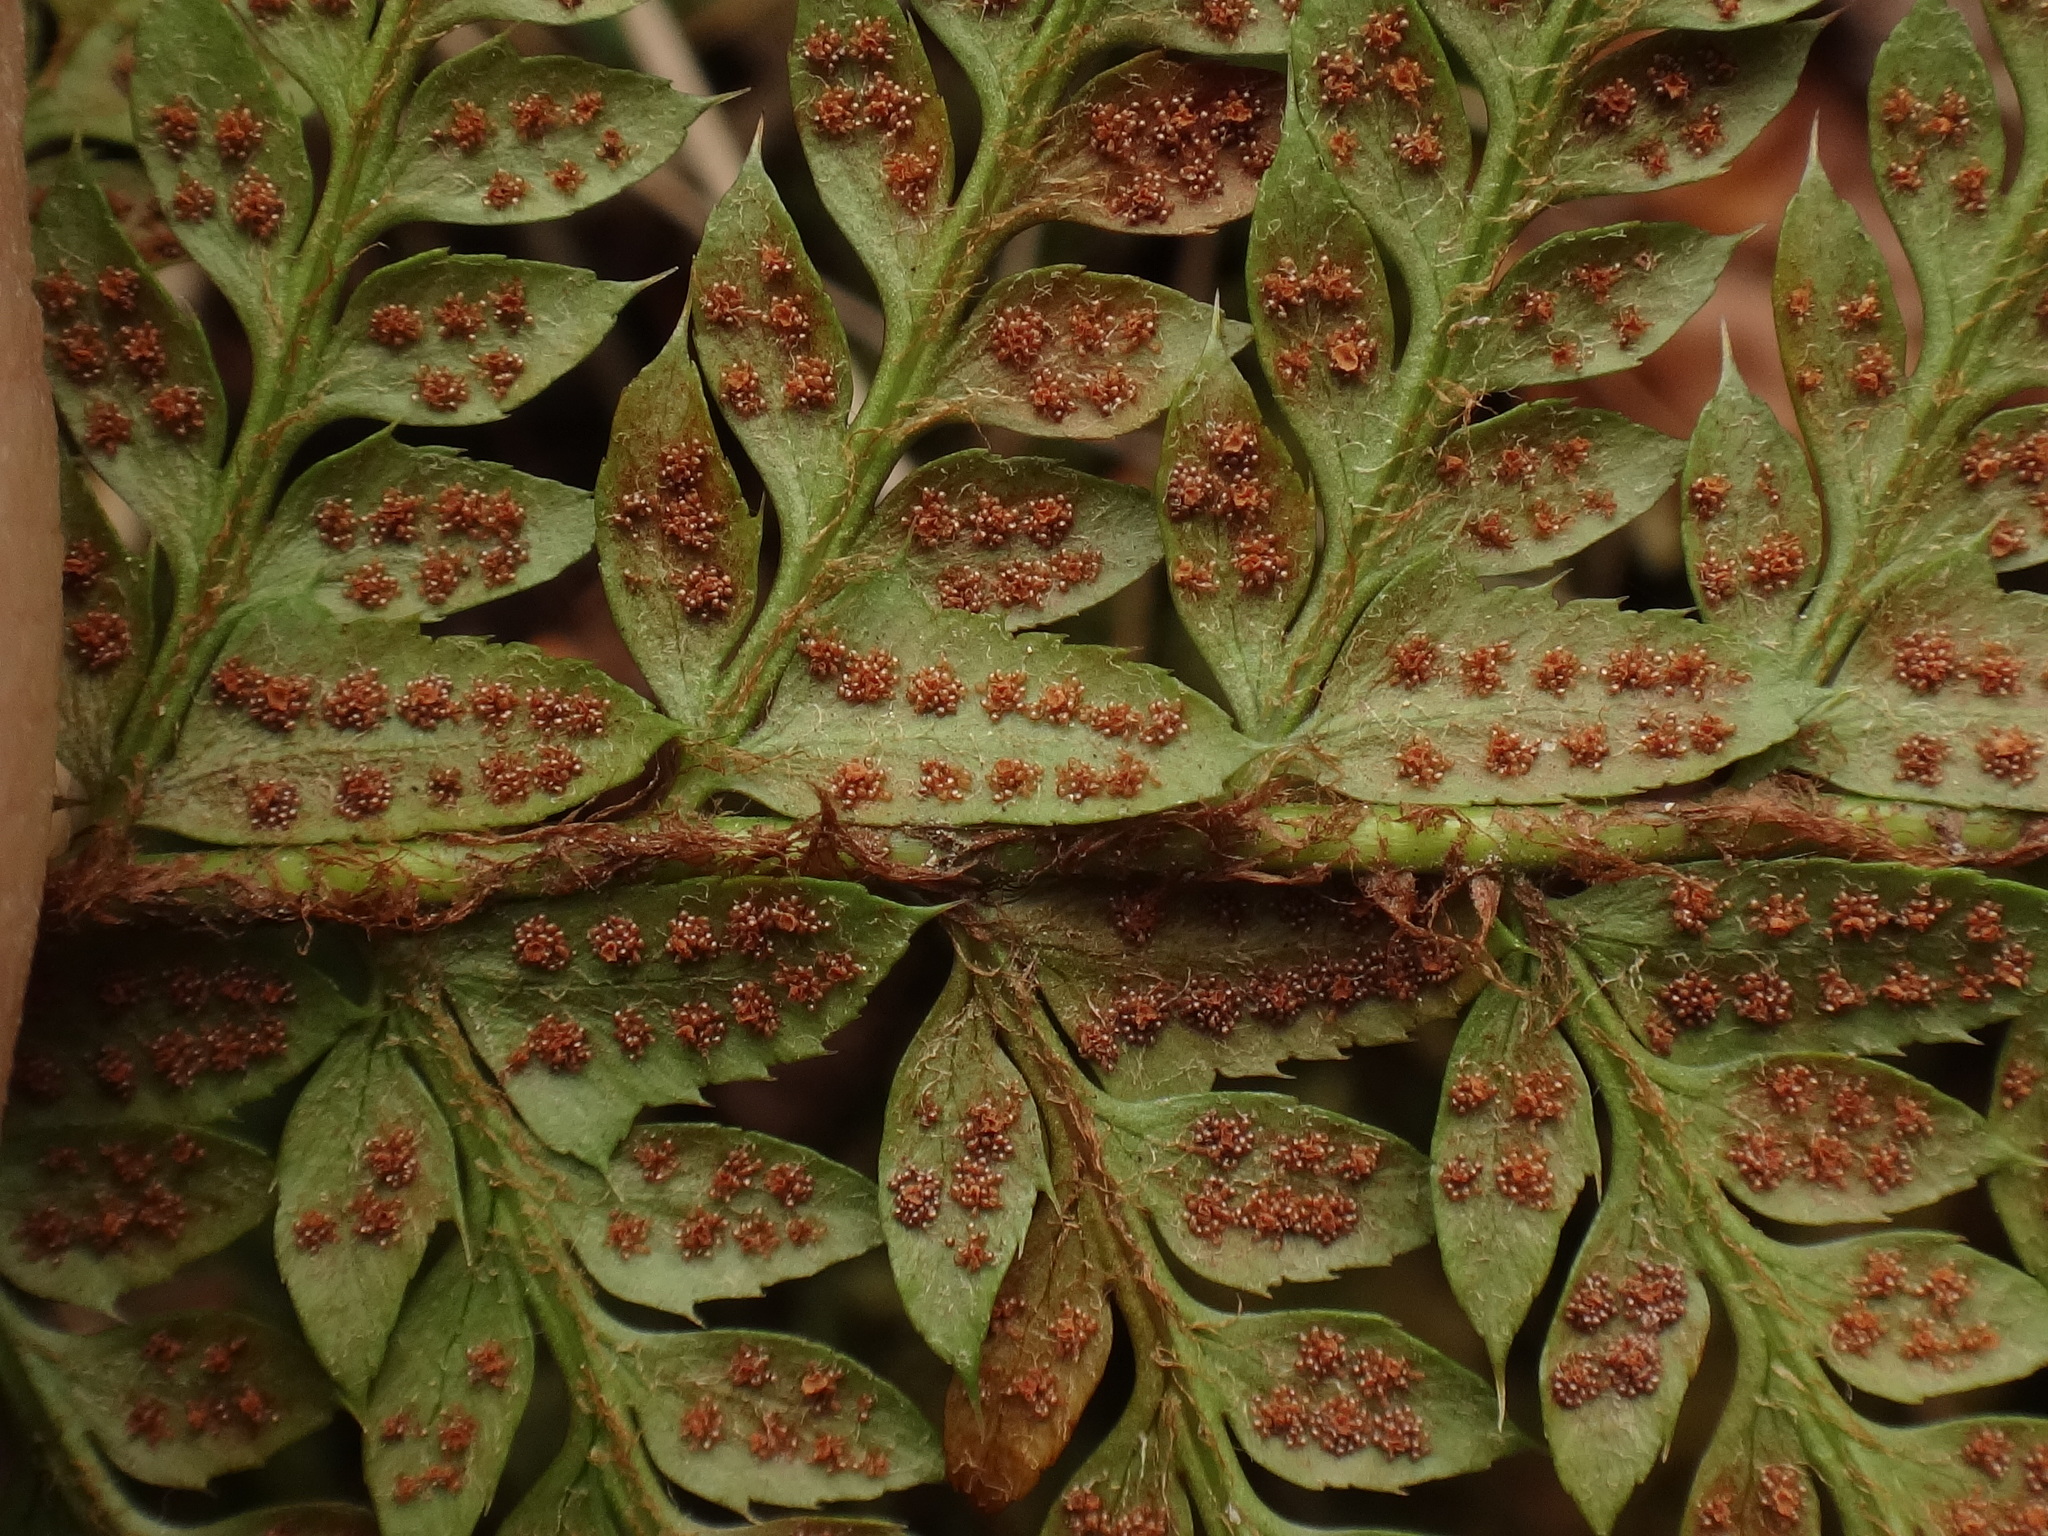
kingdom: Plantae
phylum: Tracheophyta
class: Polypodiopsida
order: Polypodiales
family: Dryopteridaceae
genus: Polystichum
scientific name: Polystichum aculeatum
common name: Hard shield-fern
